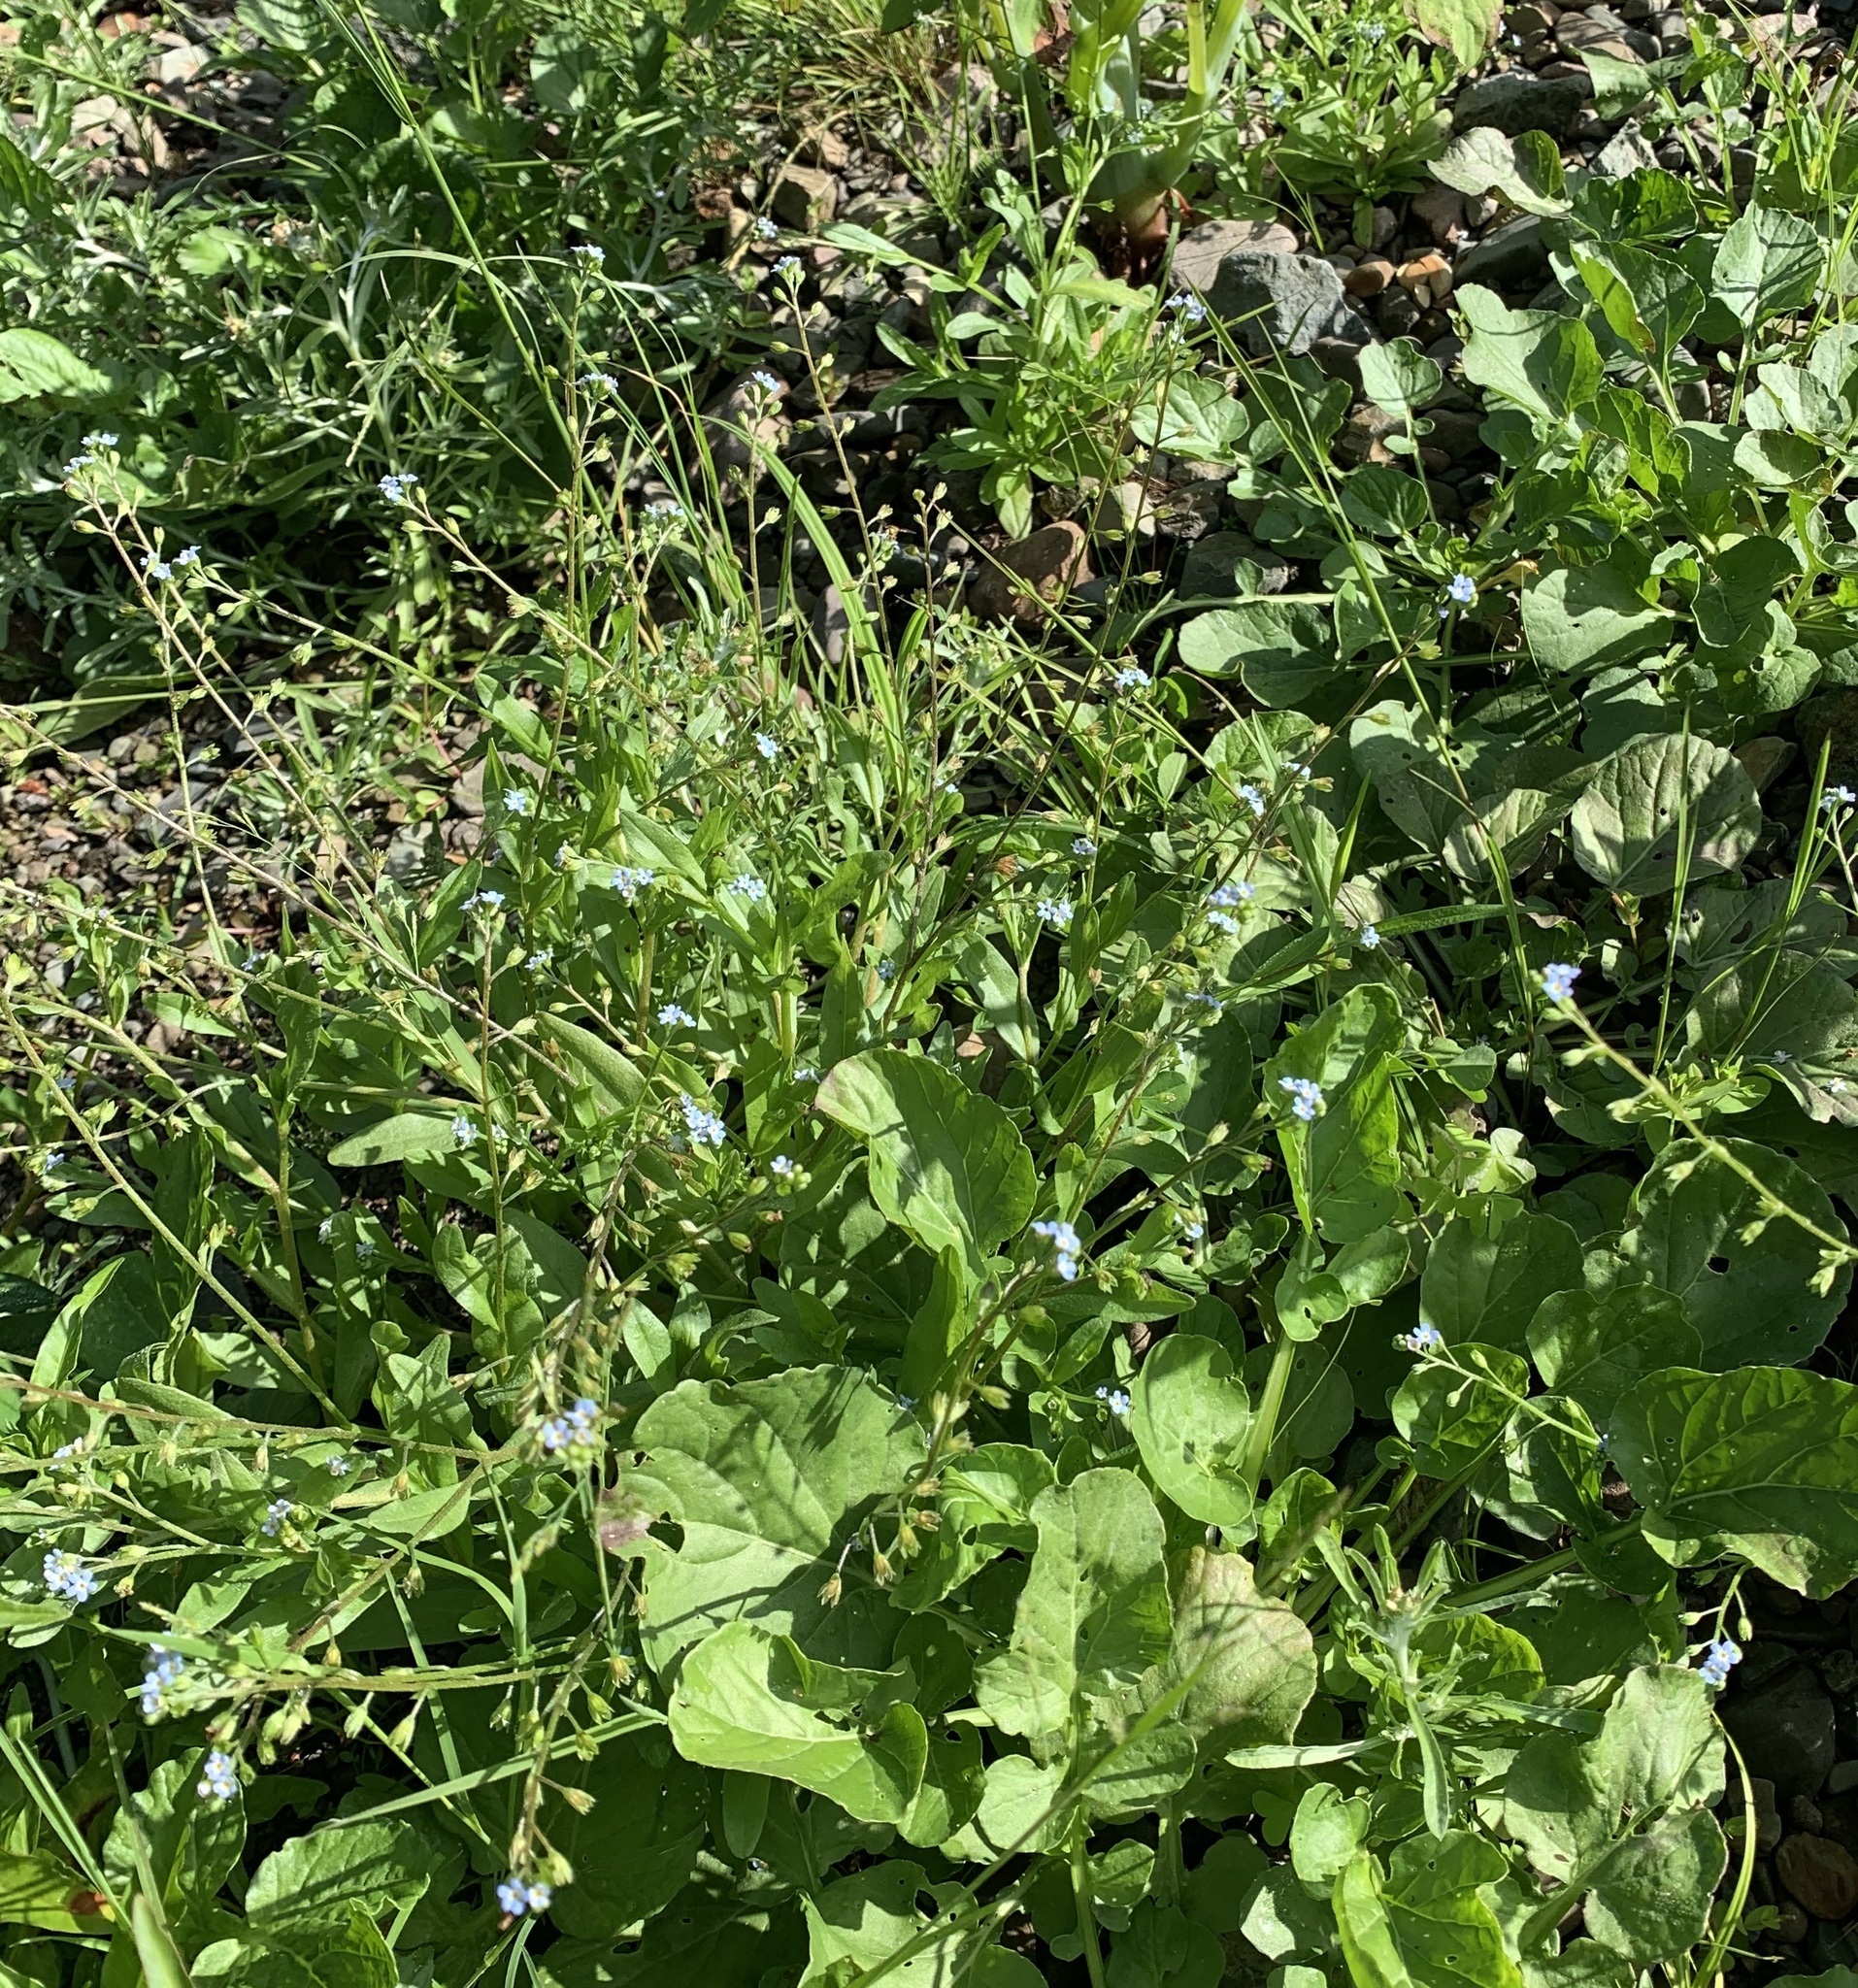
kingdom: Plantae
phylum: Tracheophyta
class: Magnoliopsida
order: Boraginales
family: Boraginaceae
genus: Myosotis
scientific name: Myosotis laxa
